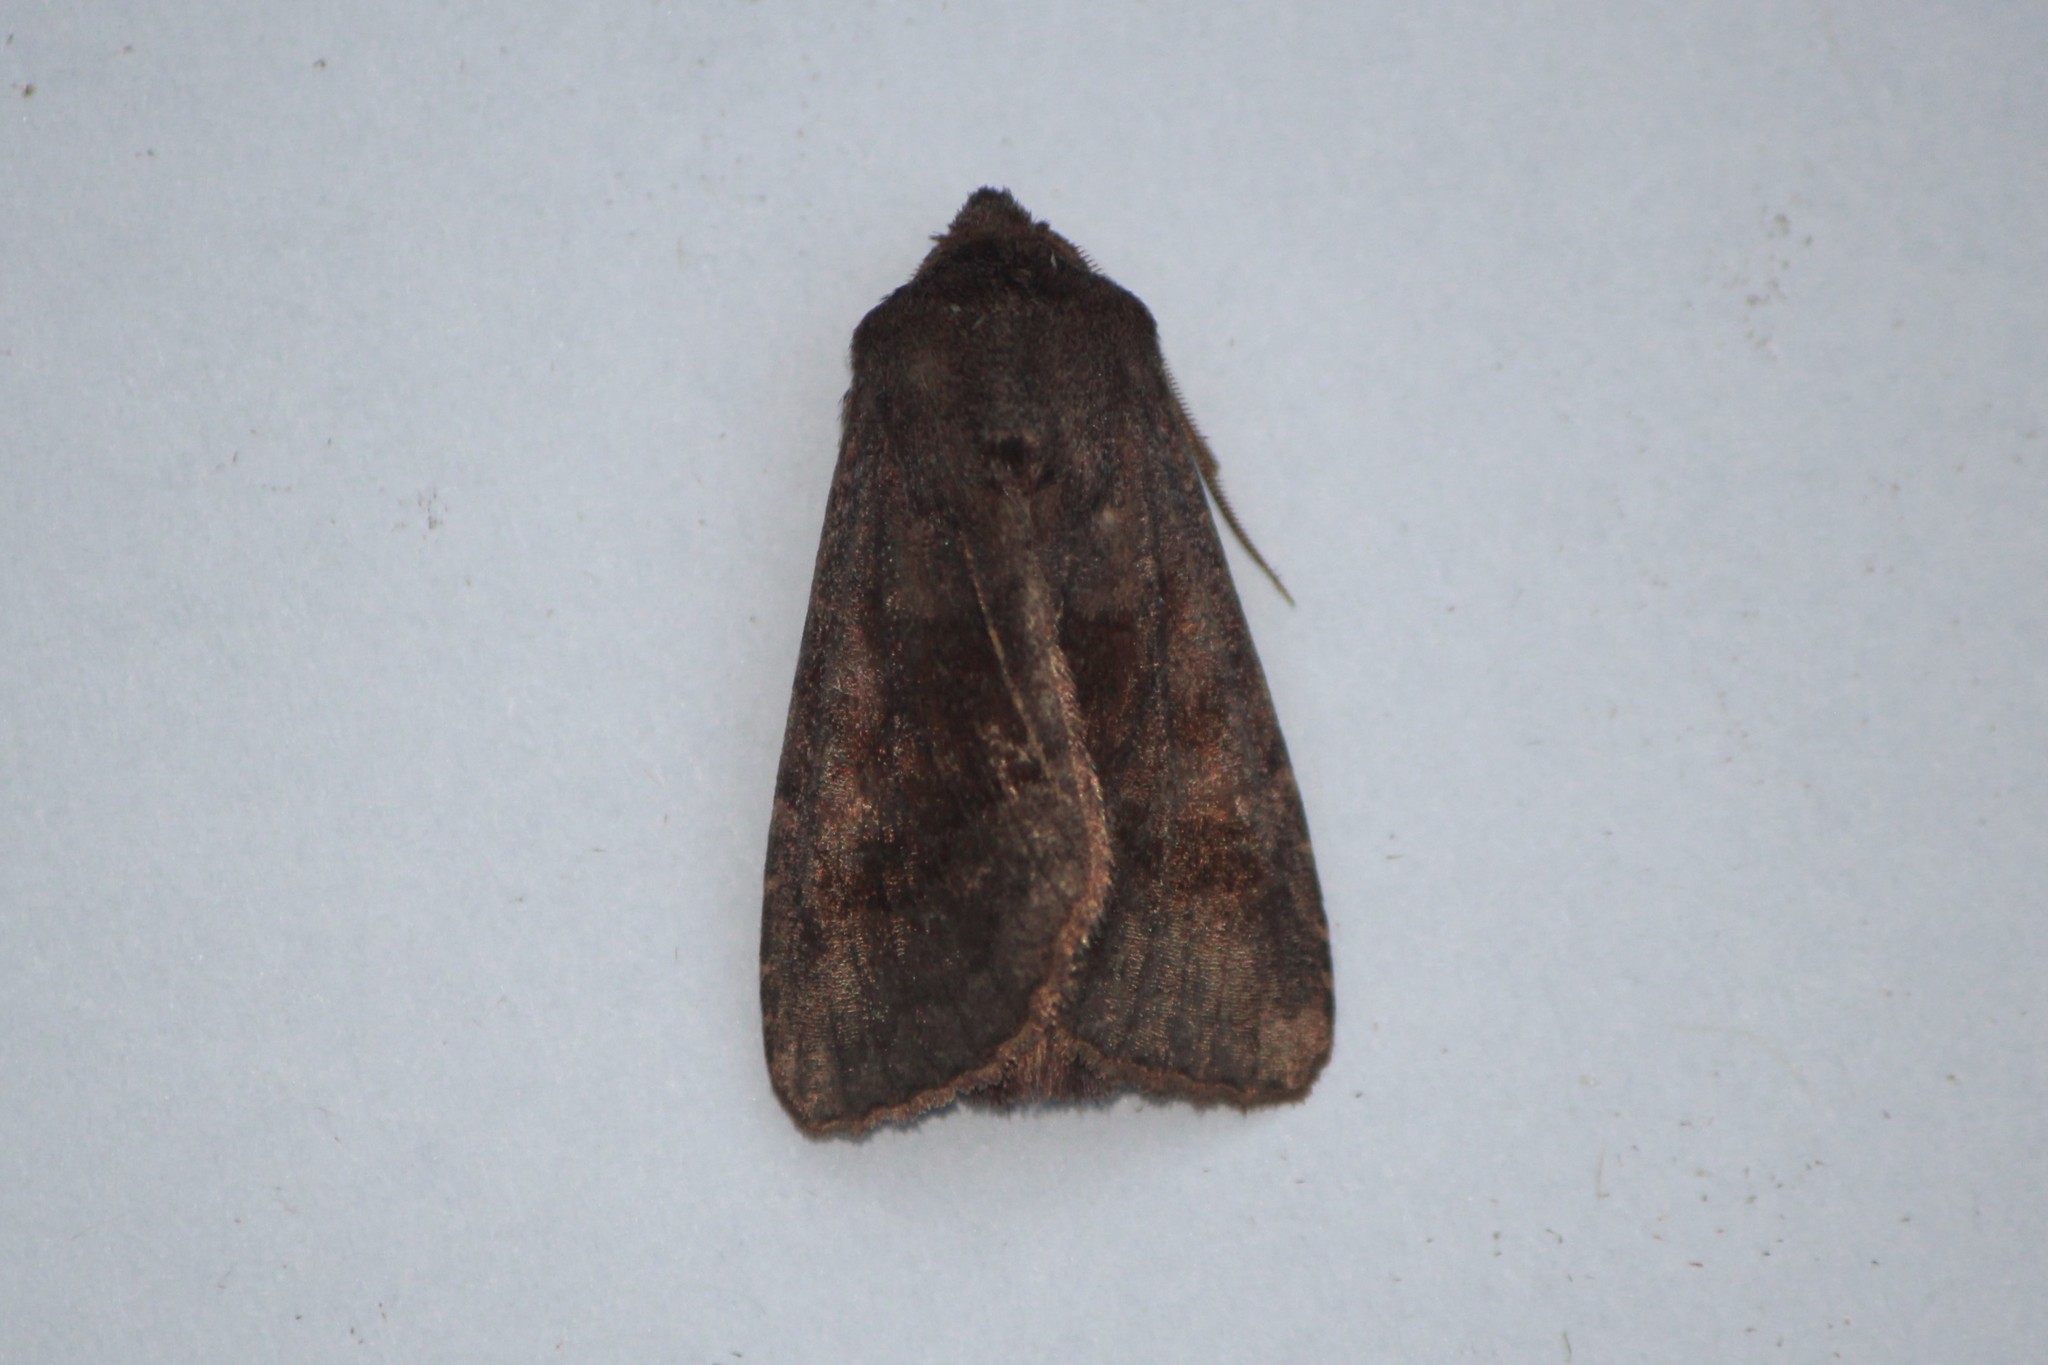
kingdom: Animalia
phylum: Arthropoda
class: Insecta
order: Lepidoptera
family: Noctuidae
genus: Nephelodes
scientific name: Nephelodes minians
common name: Bronzed cutworm
